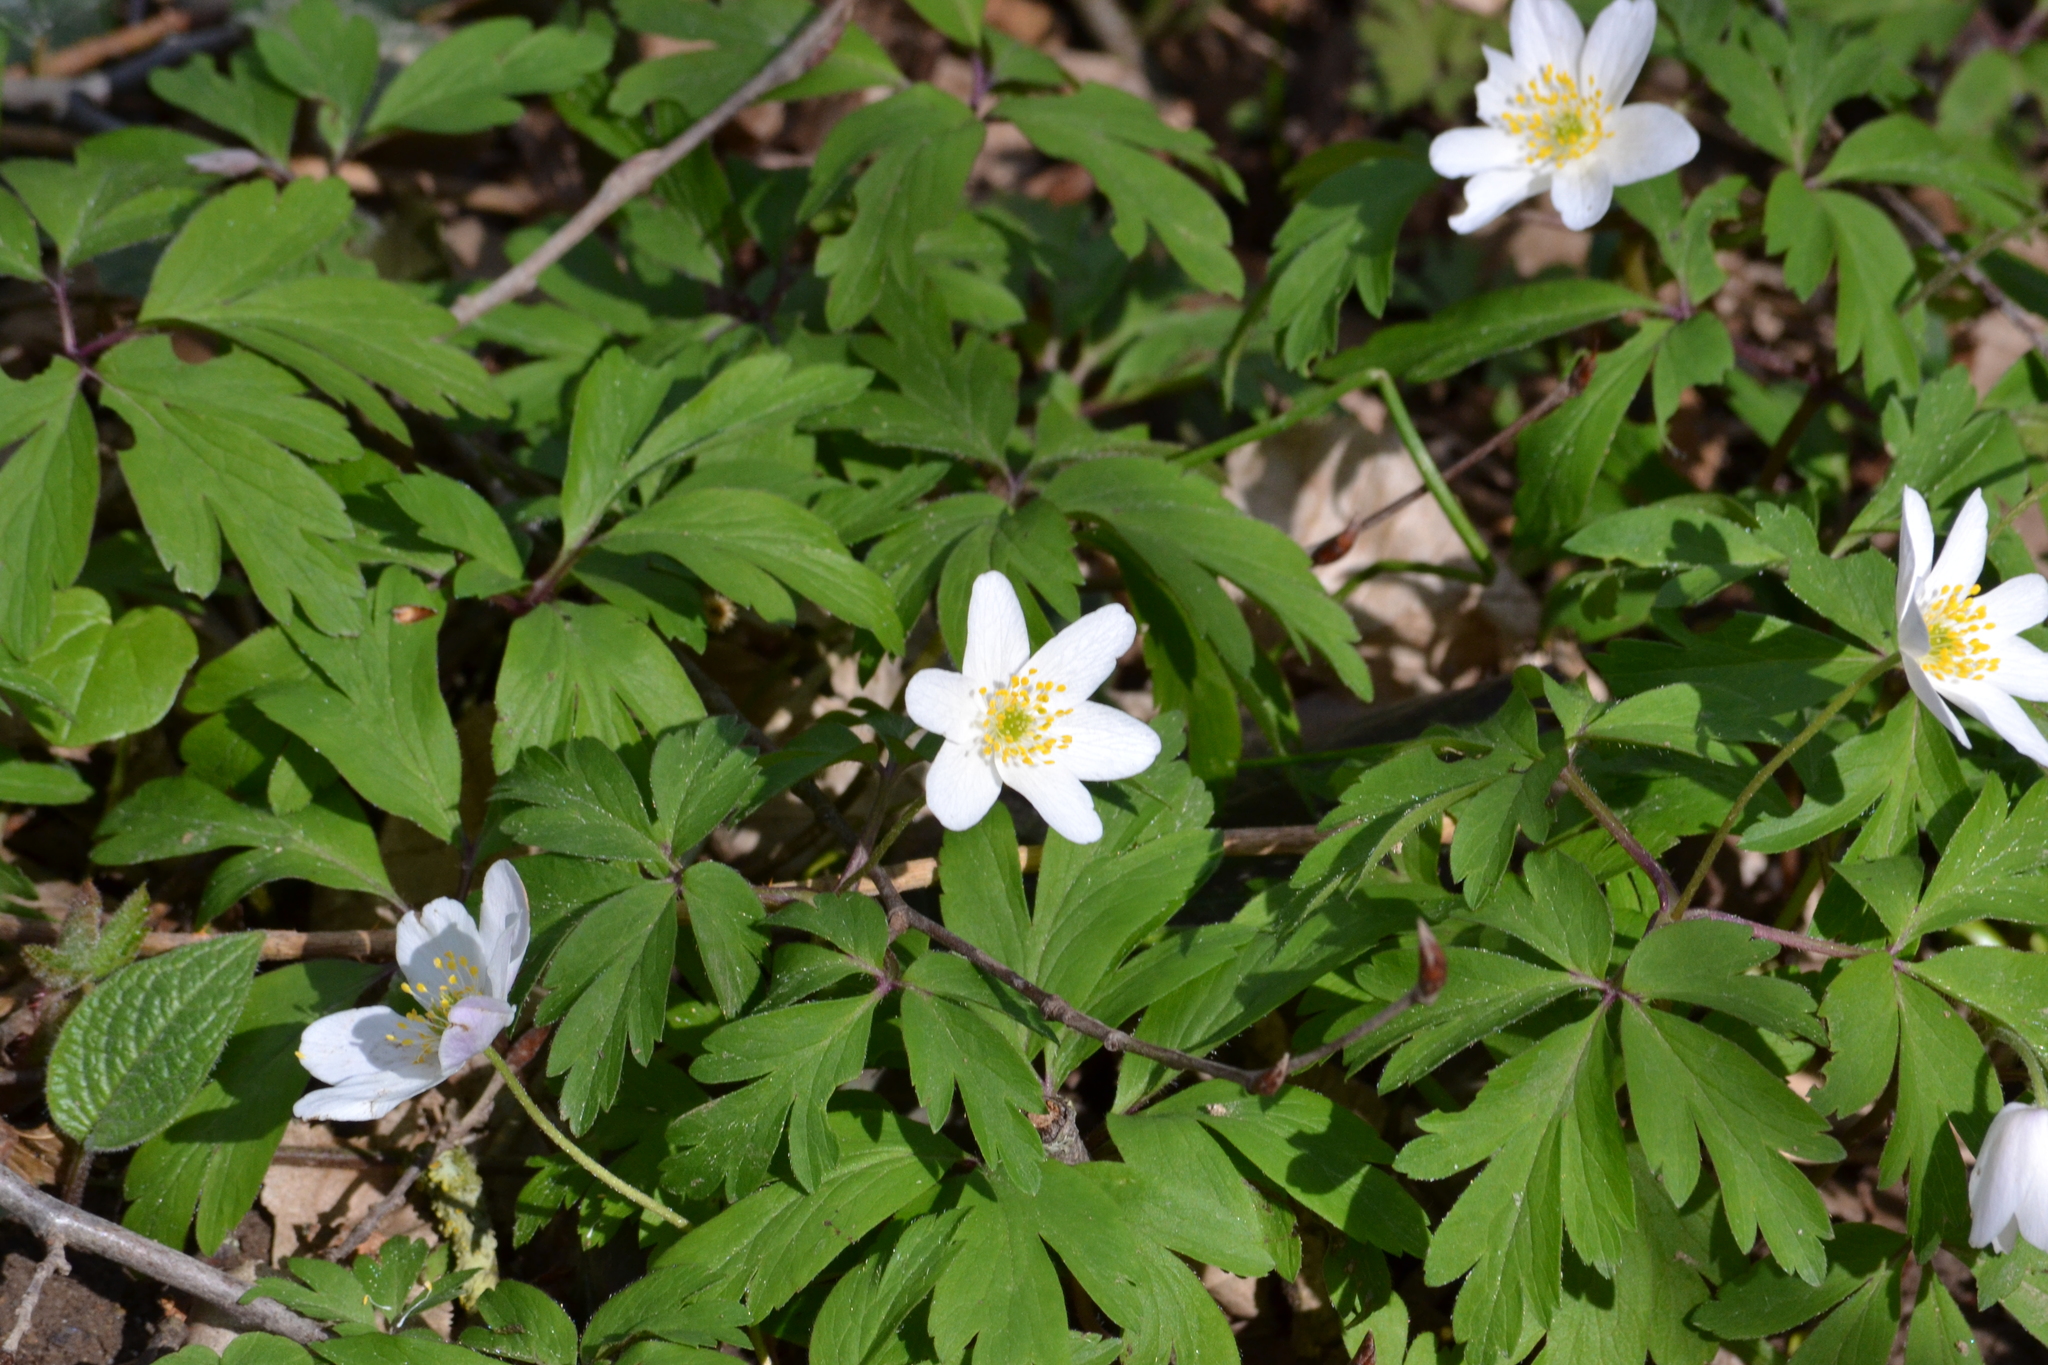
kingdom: Plantae
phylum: Tracheophyta
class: Magnoliopsida
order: Ranunculales
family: Ranunculaceae
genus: Anemone
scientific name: Anemone nemorosa
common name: Wood anemone
